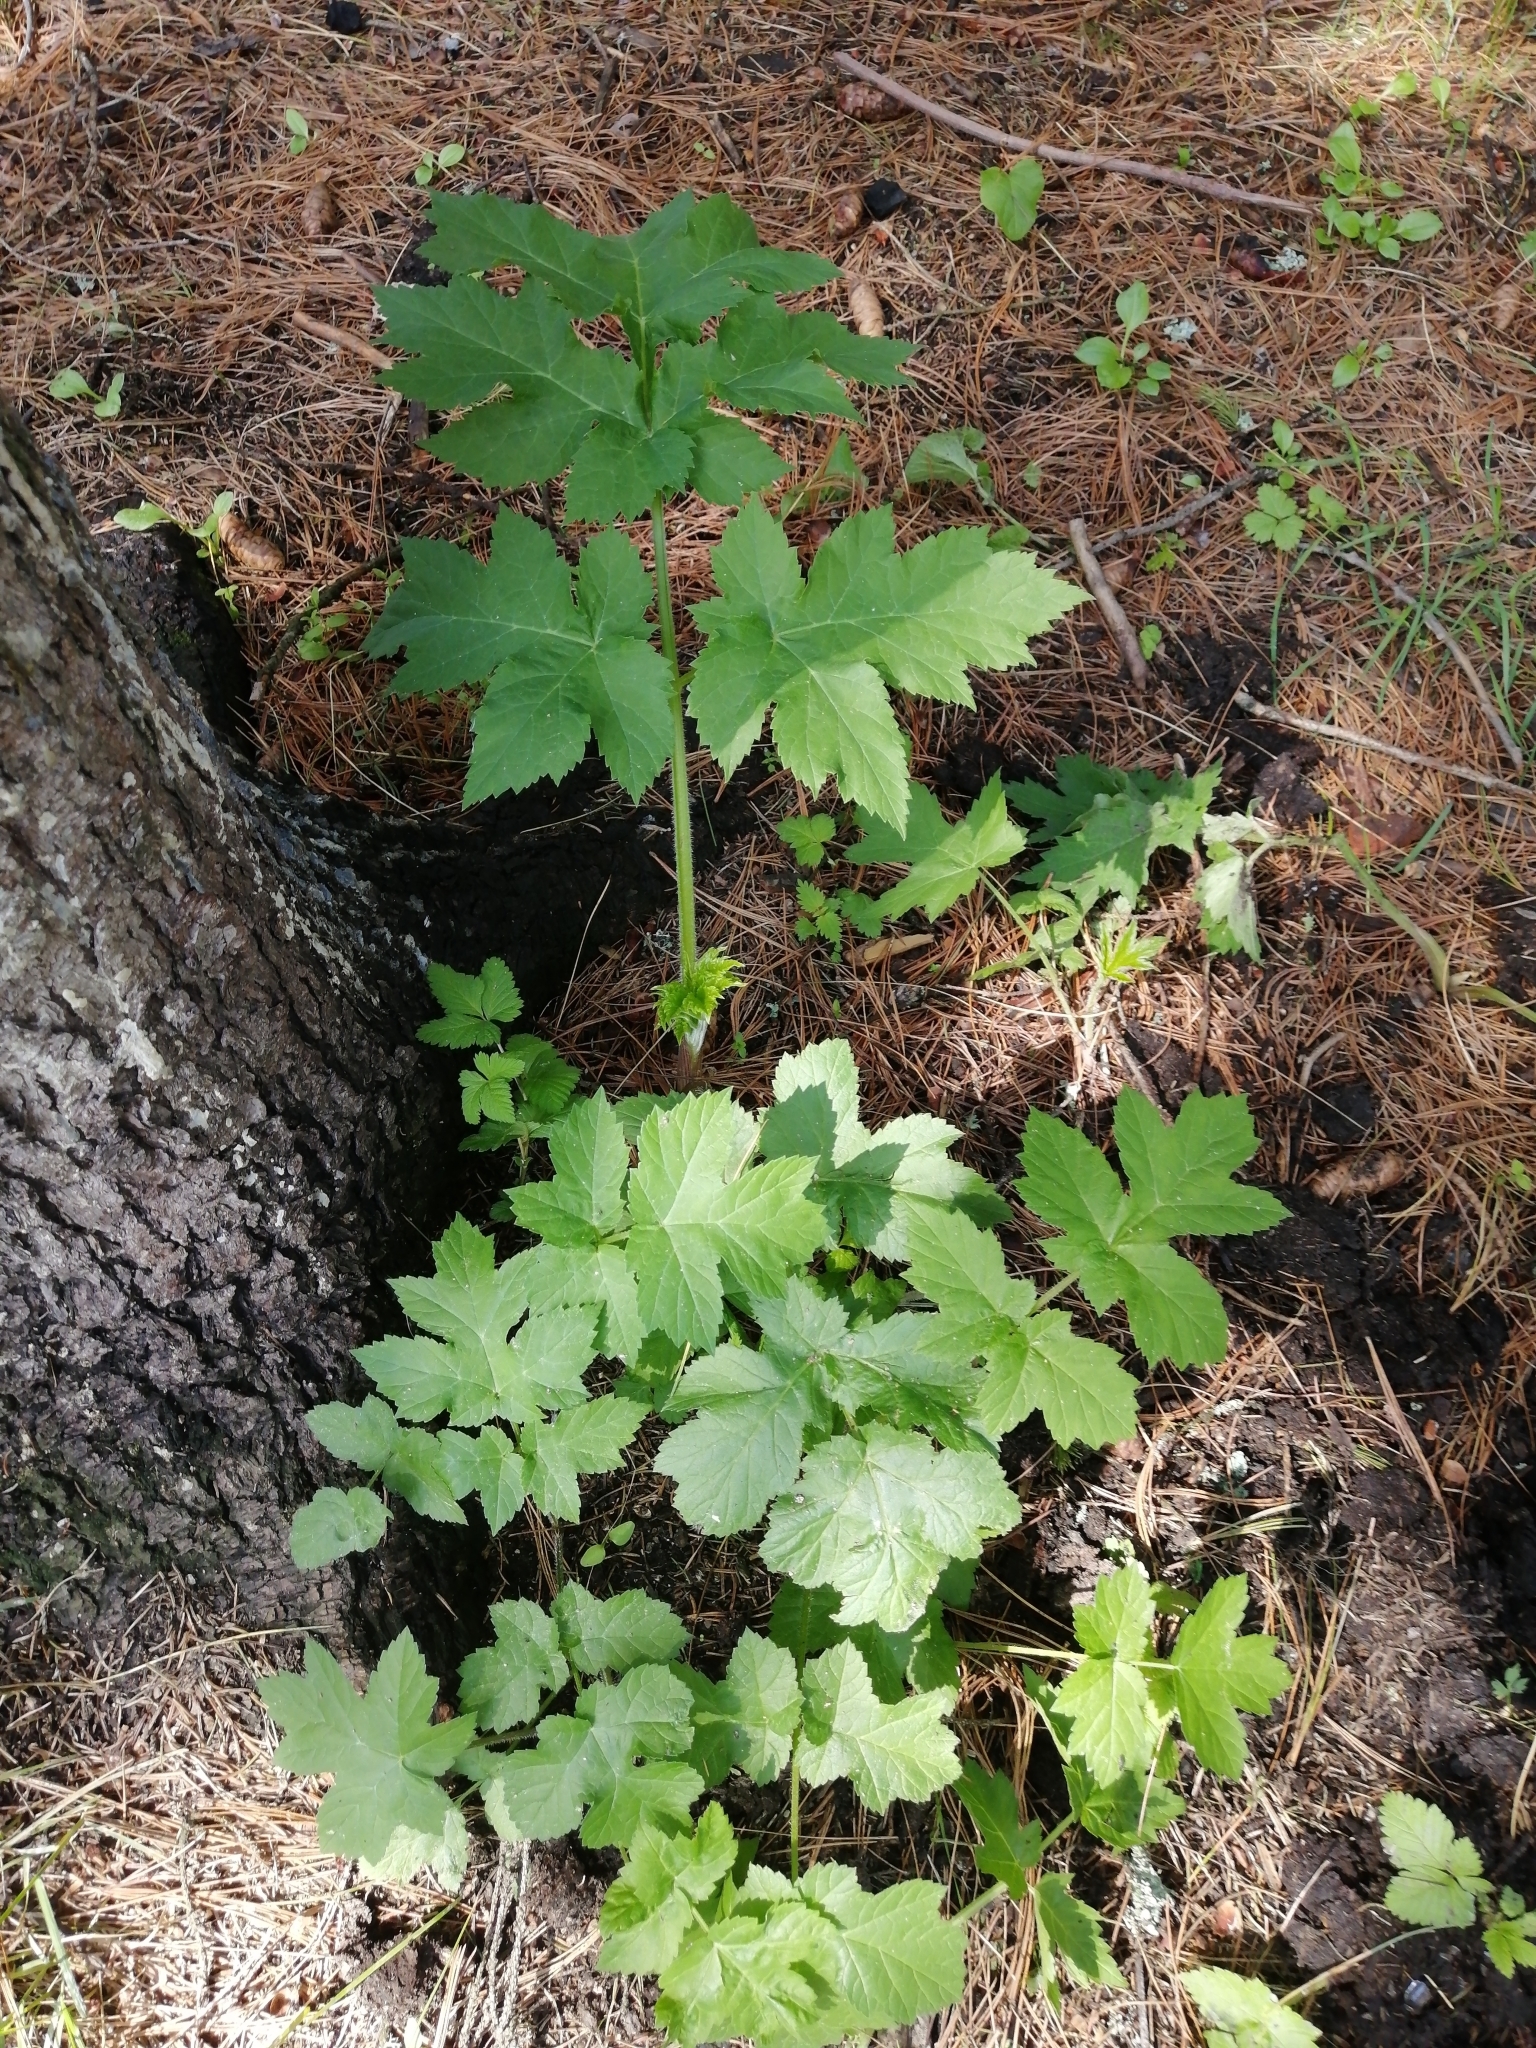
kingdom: Plantae
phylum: Tracheophyta
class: Magnoliopsida
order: Apiales
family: Apiaceae
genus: Heracleum
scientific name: Heracleum dissectum
